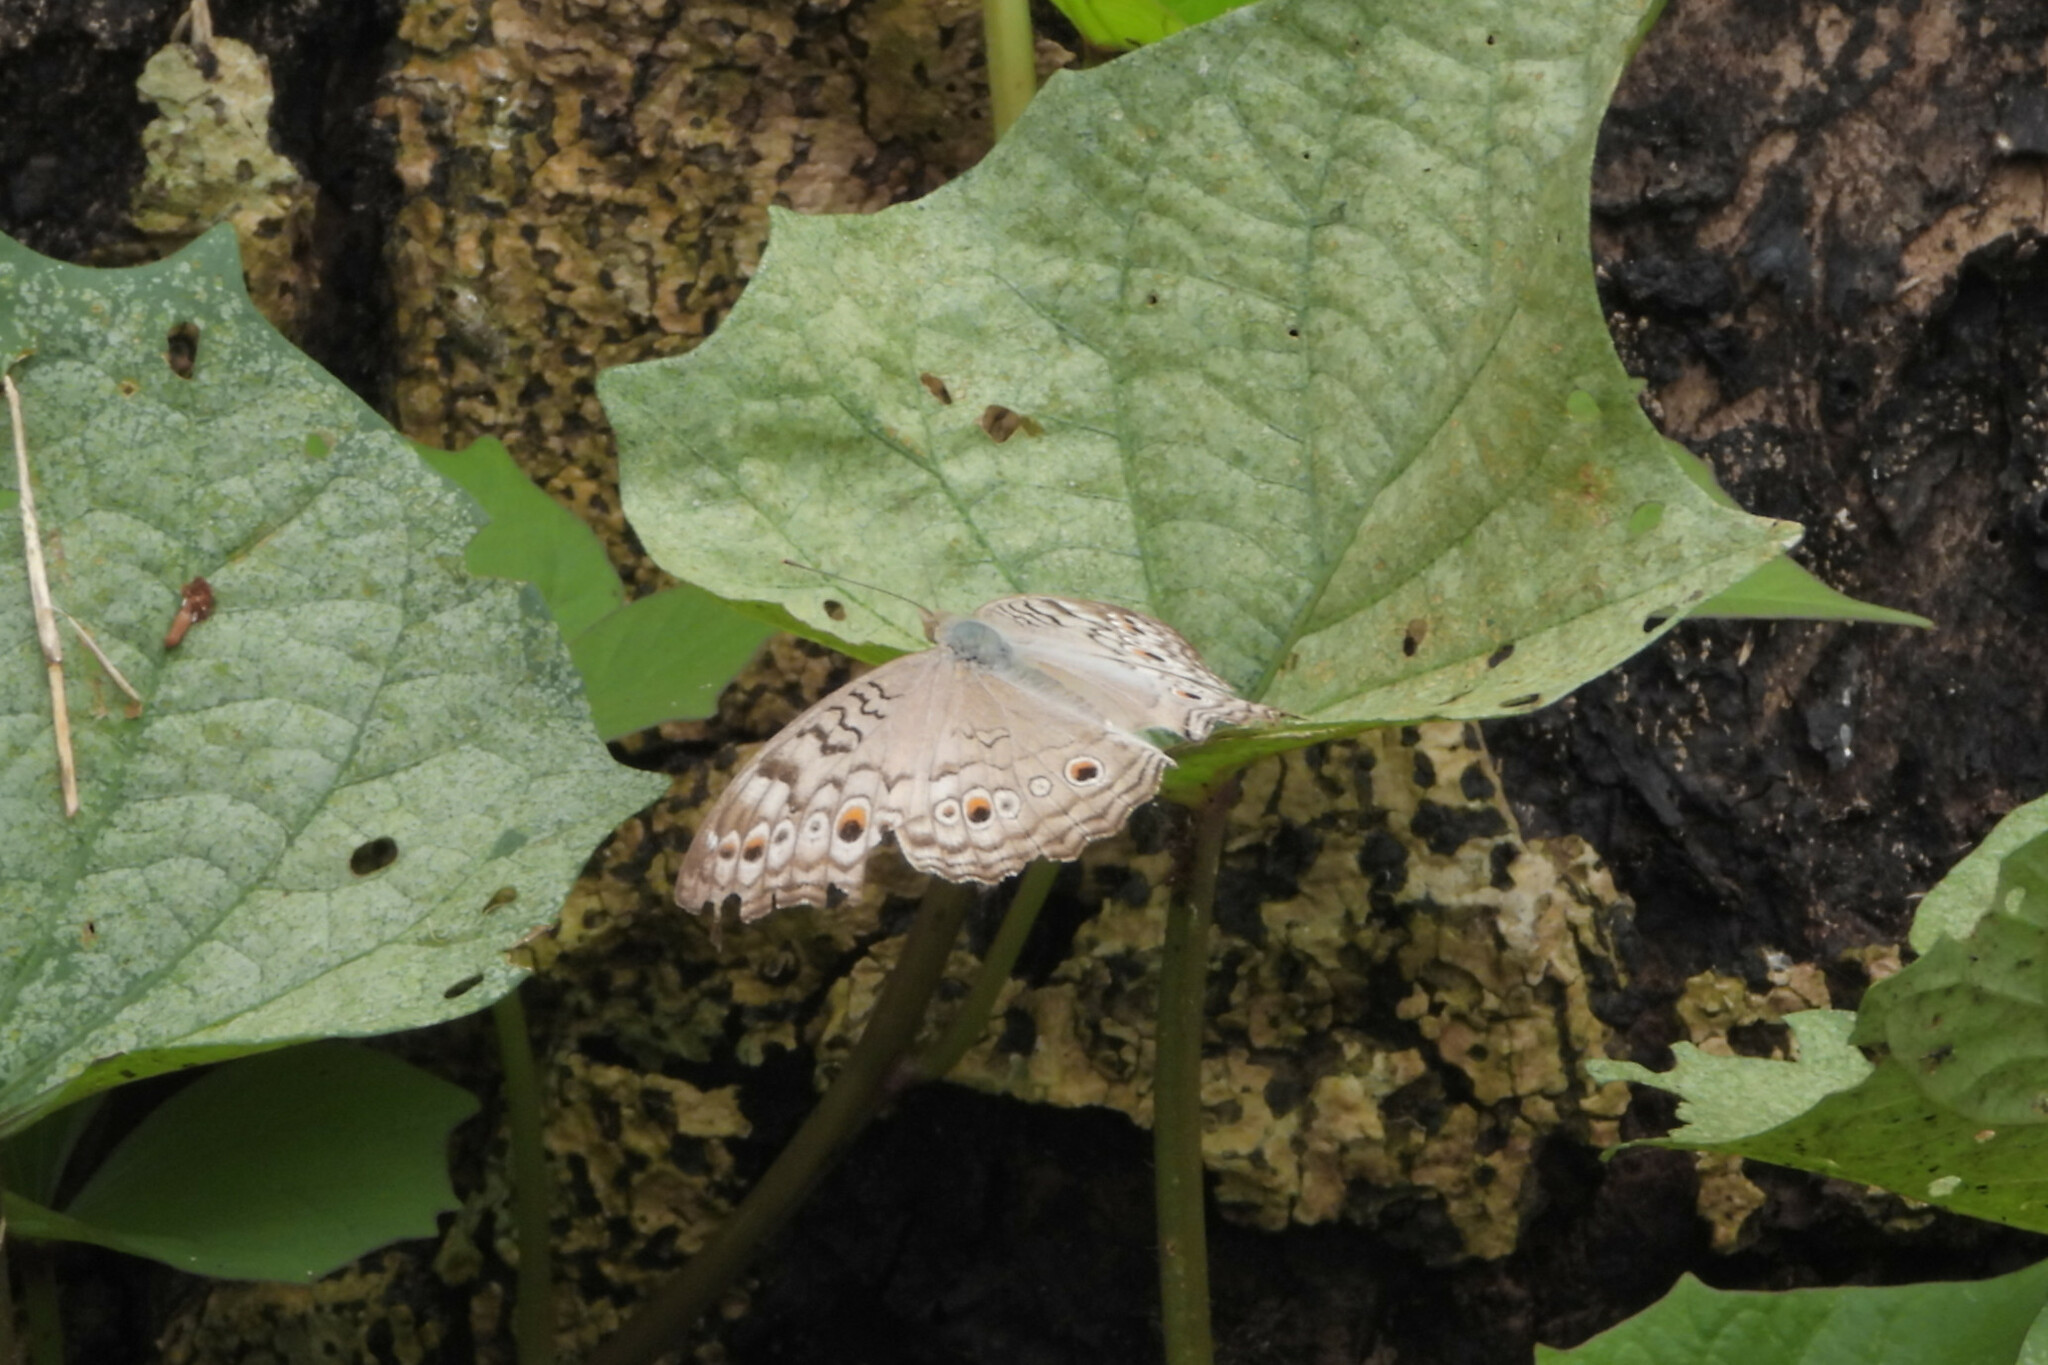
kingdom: Animalia
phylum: Arthropoda
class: Insecta
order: Lepidoptera
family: Nymphalidae
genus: Junonia
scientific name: Junonia atlites
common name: Grey pansy
